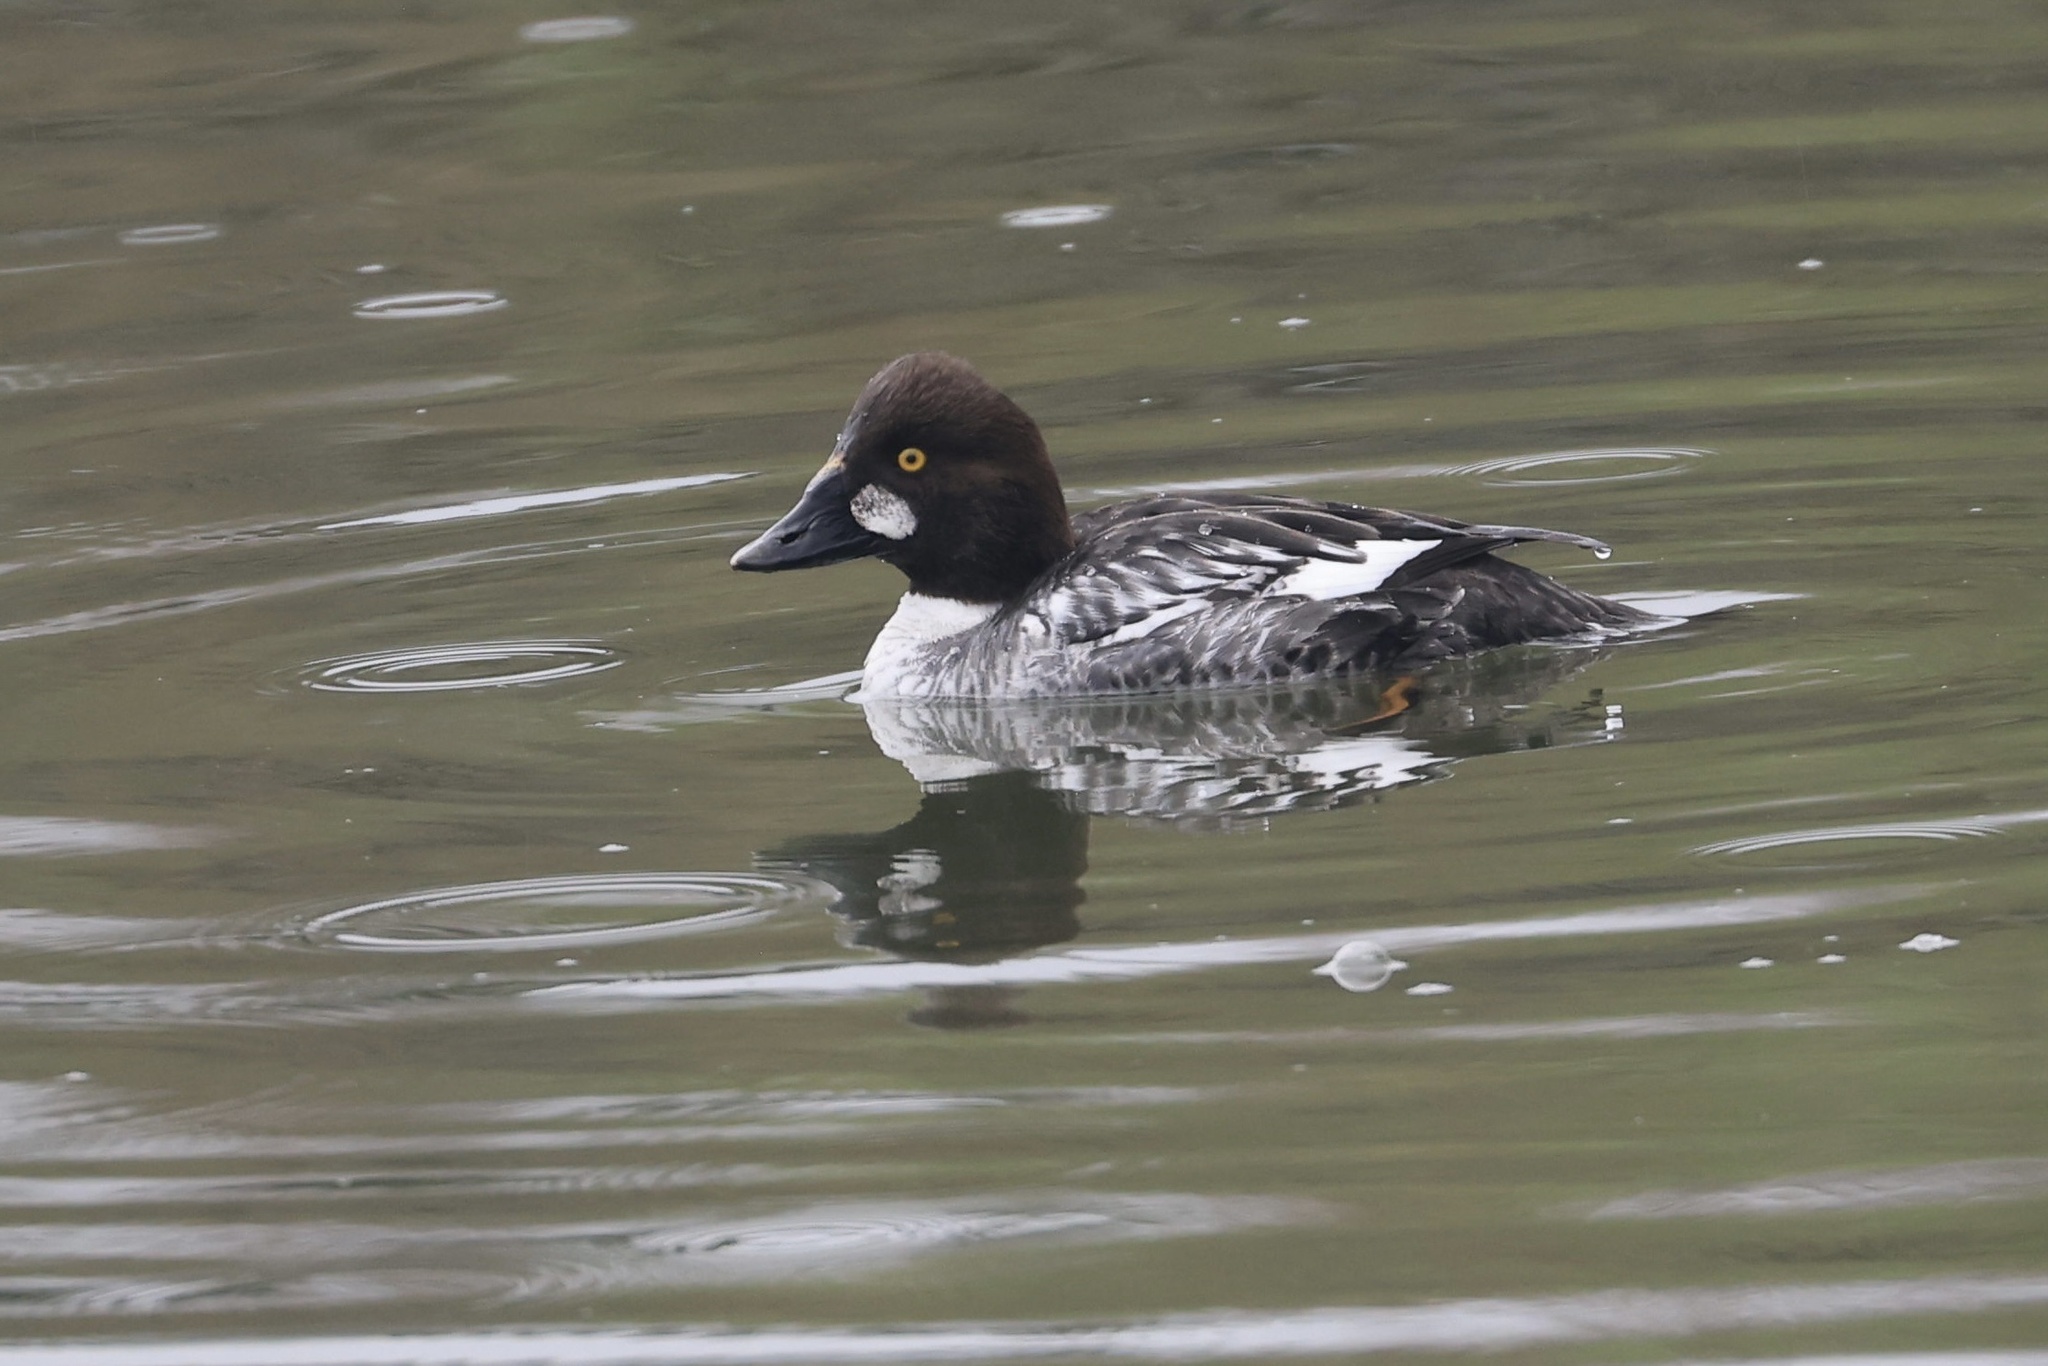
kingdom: Animalia
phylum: Chordata
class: Aves
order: Anseriformes
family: Anatidae
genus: Bucephala
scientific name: Bucephala clangula
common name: Common goldeneye
